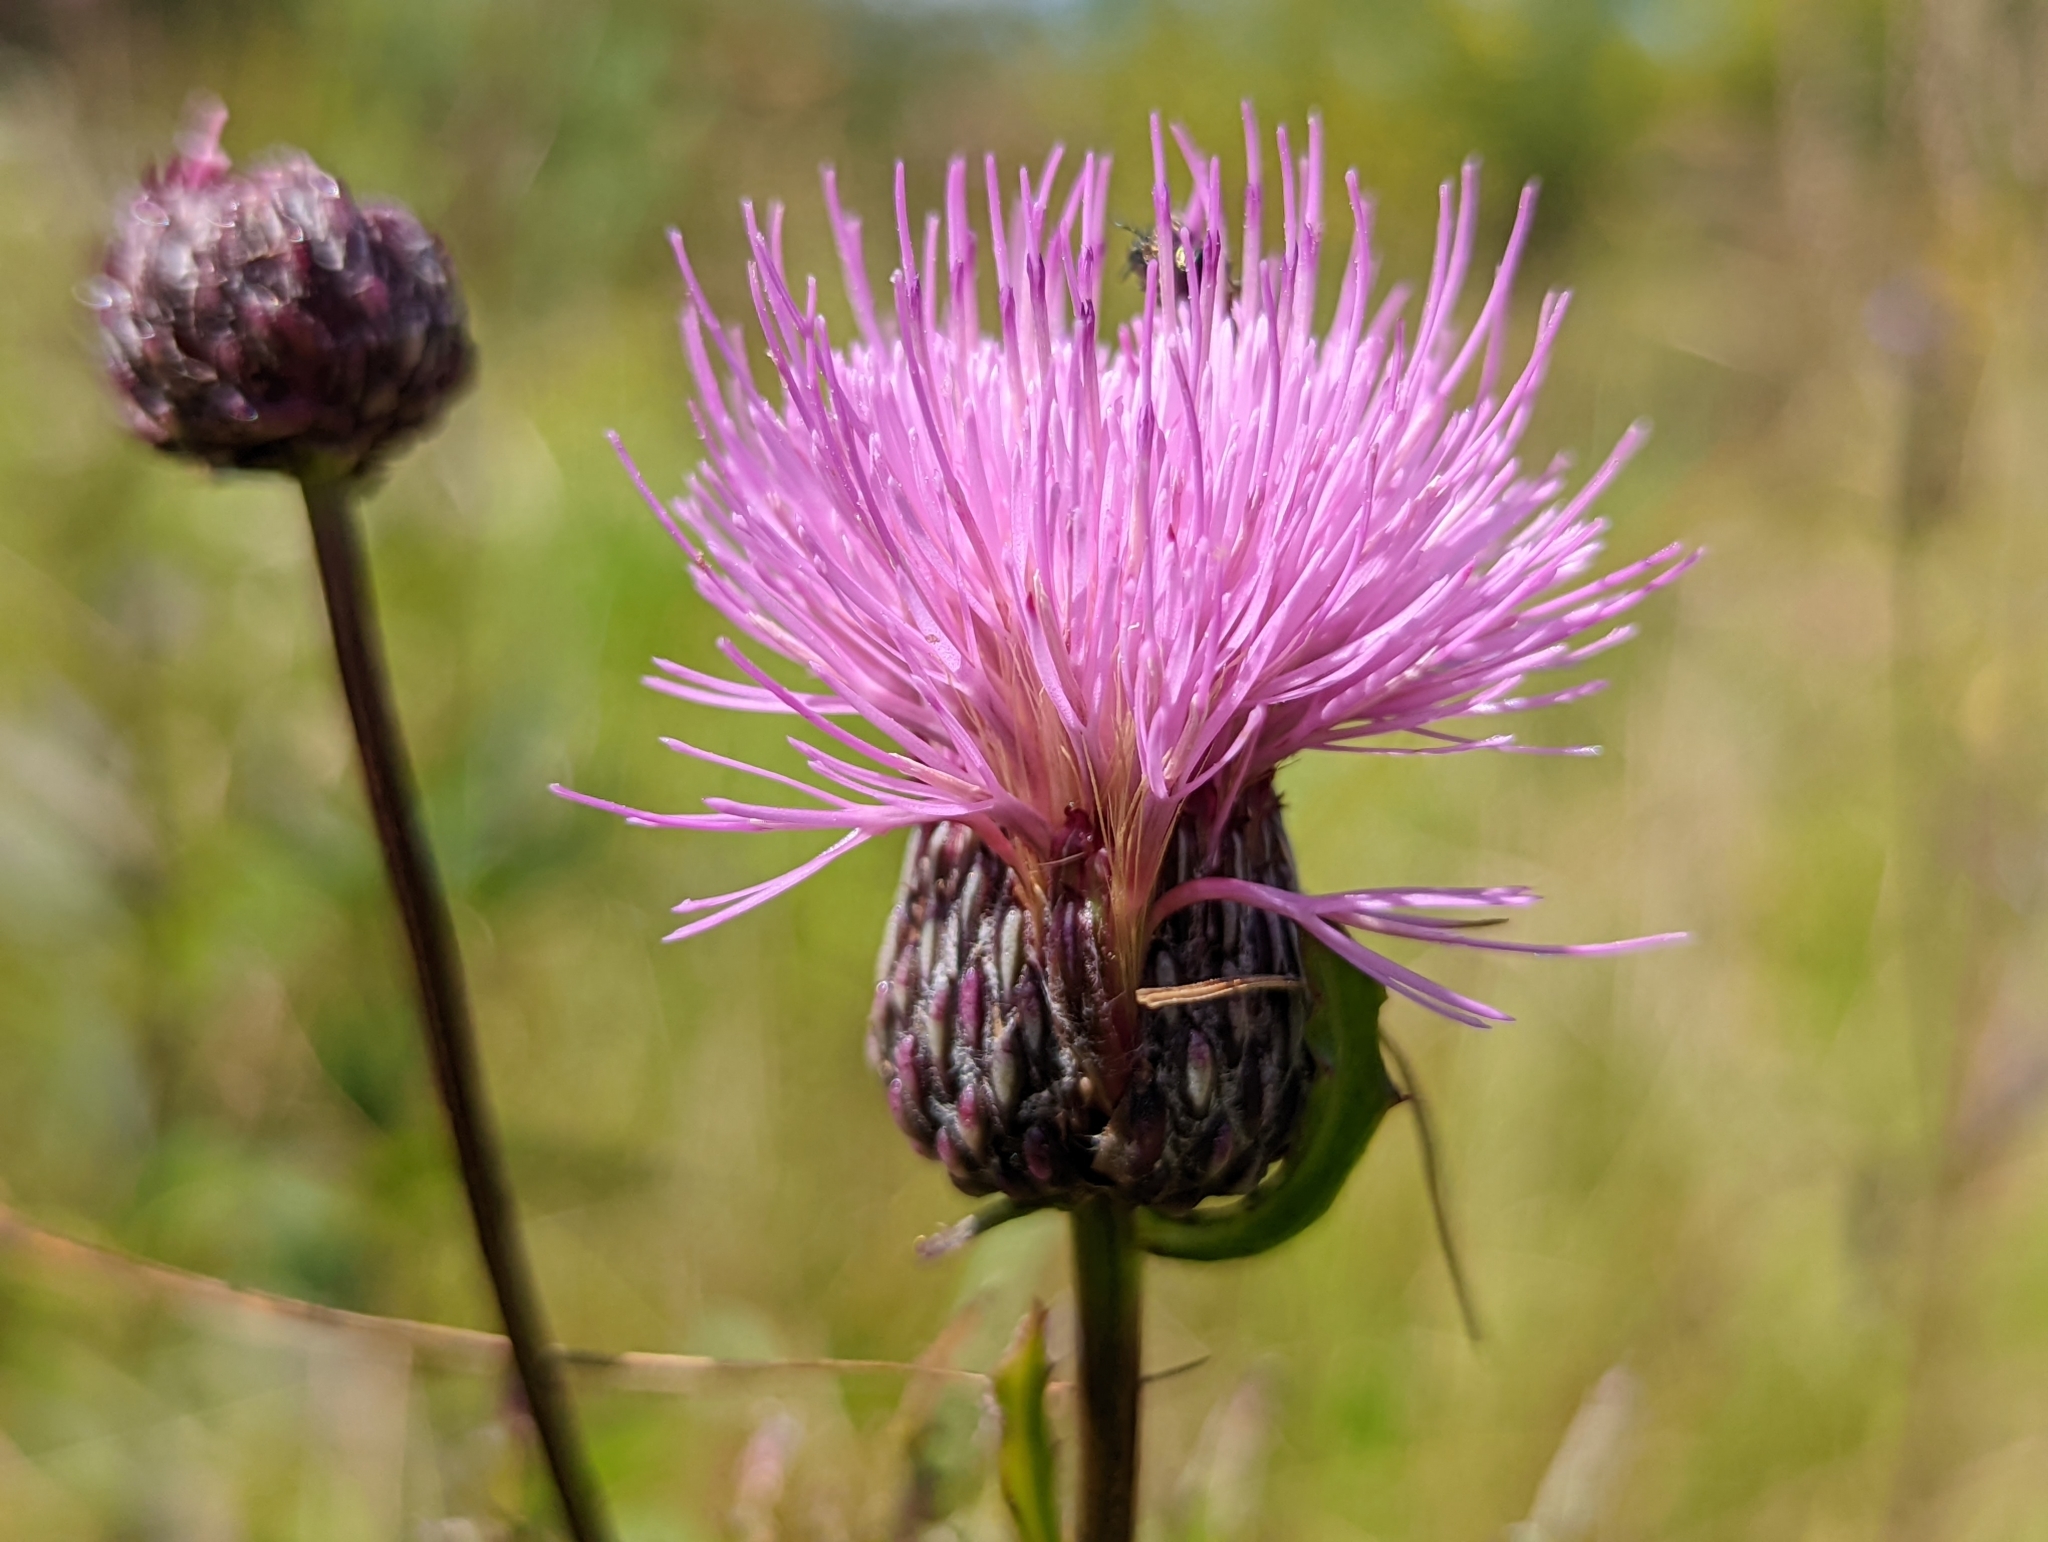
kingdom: Plantae
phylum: Tracheophyta
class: Magnoliopsida
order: Asterales
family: Asteraceae
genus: Cirsium
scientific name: Cirsium muticum
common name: Dunce-nettle
